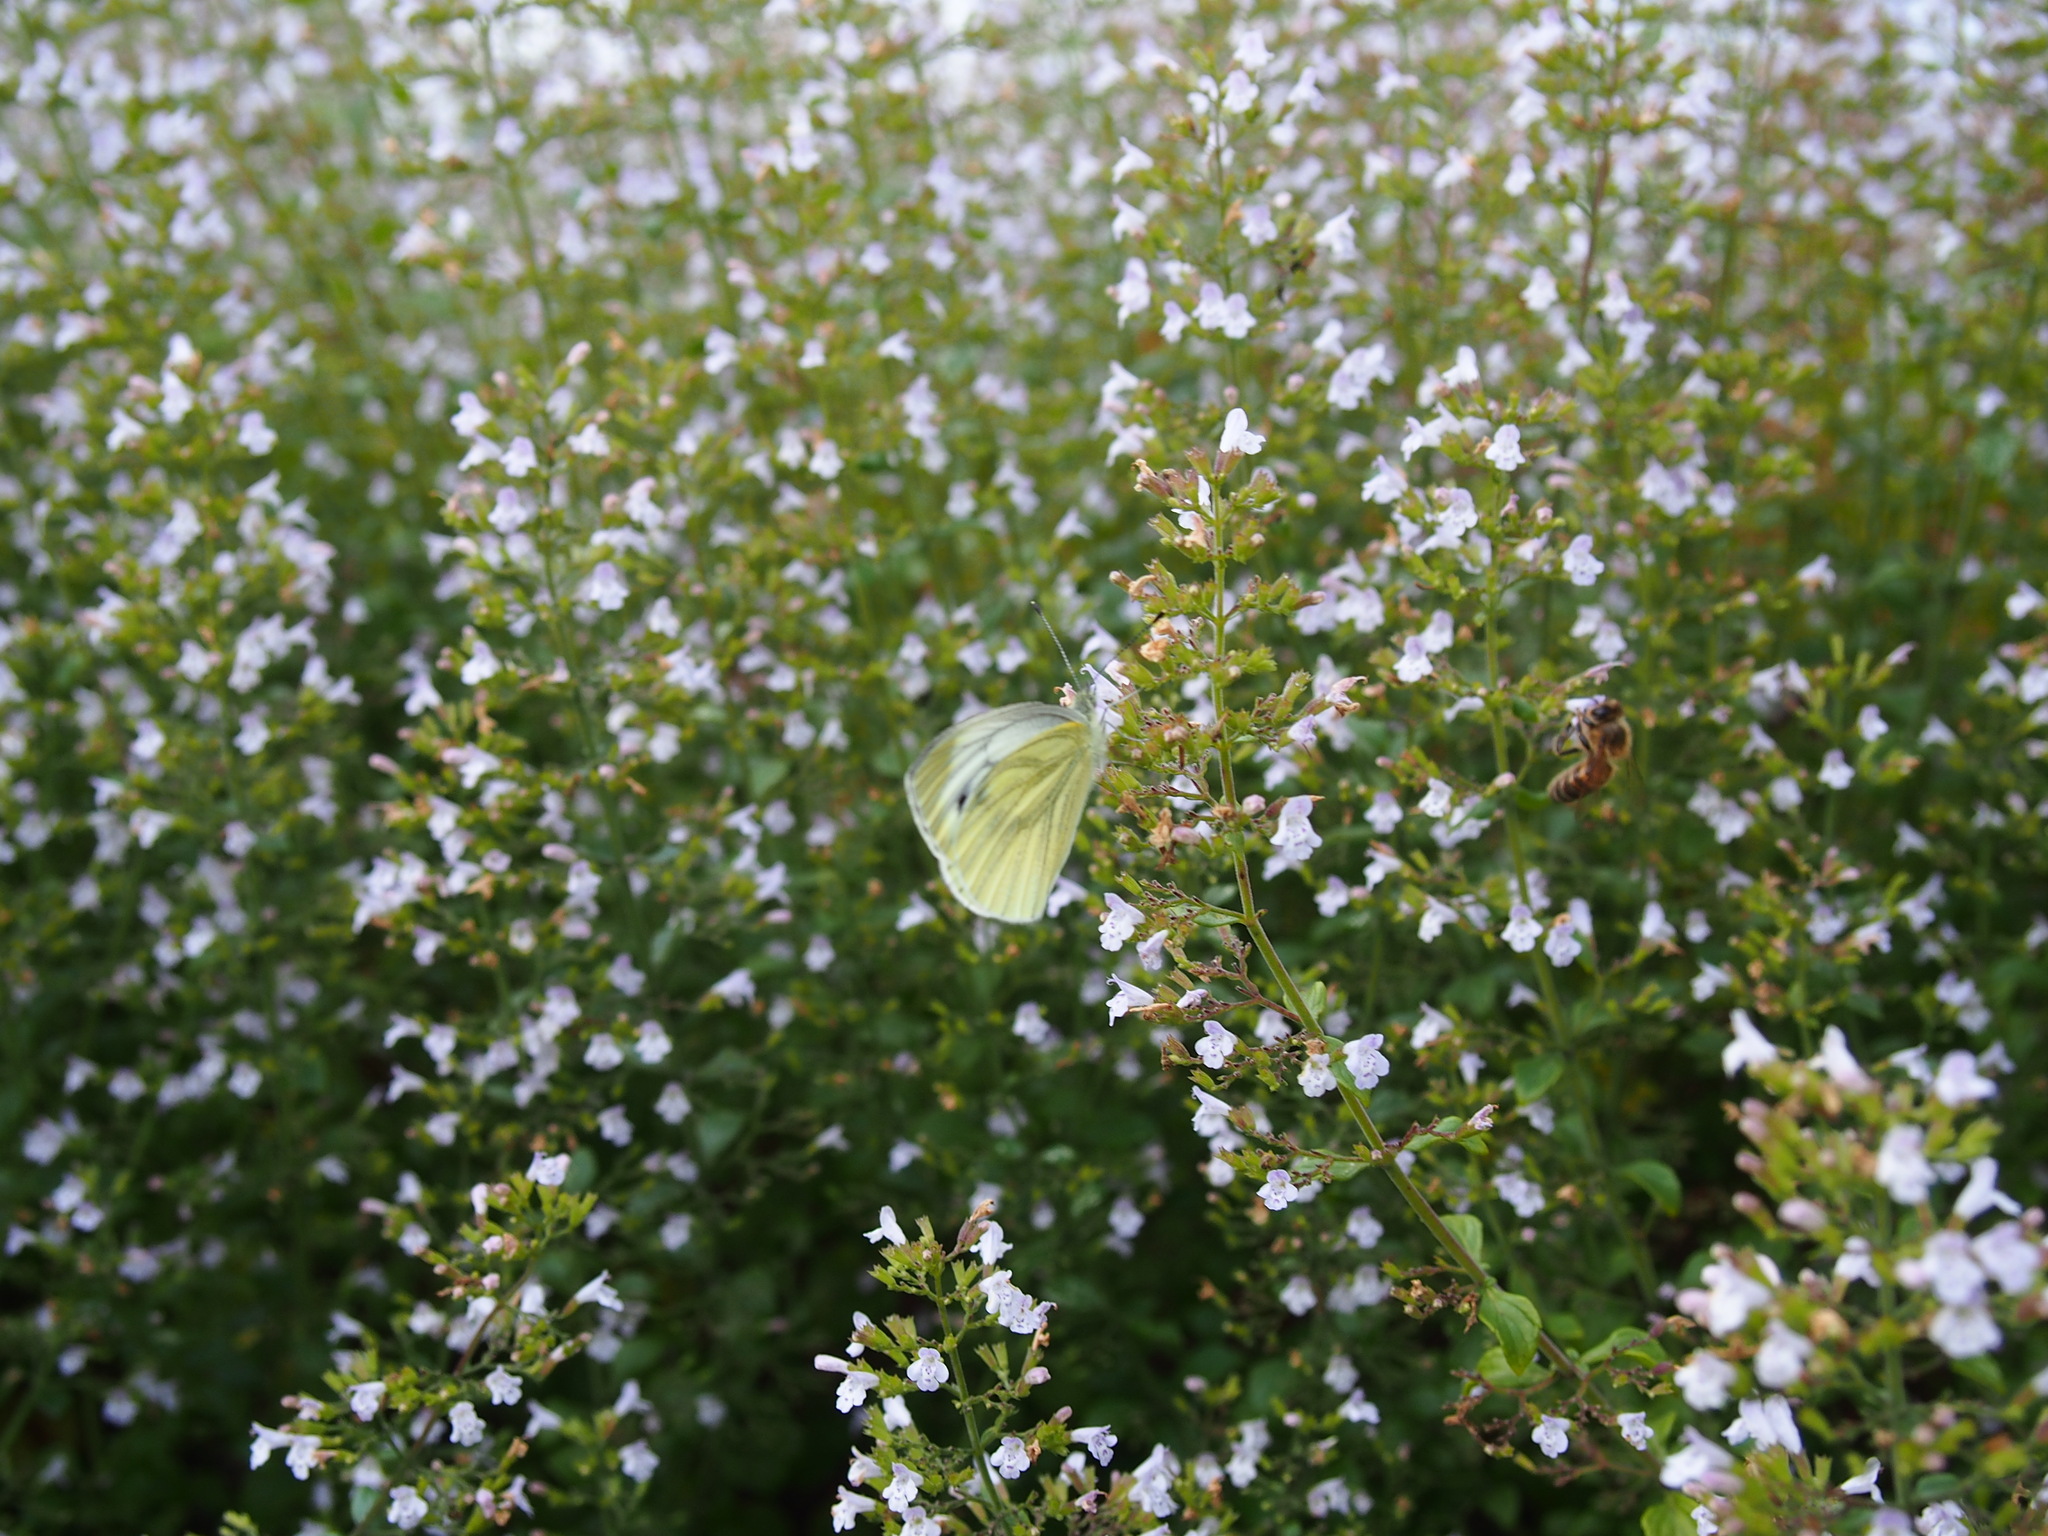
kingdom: Animalia
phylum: Arthropoda
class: Insecta
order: Lepidoptera
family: Pieridae
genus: Pieris
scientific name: Pieris napi
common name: Green-veined white
